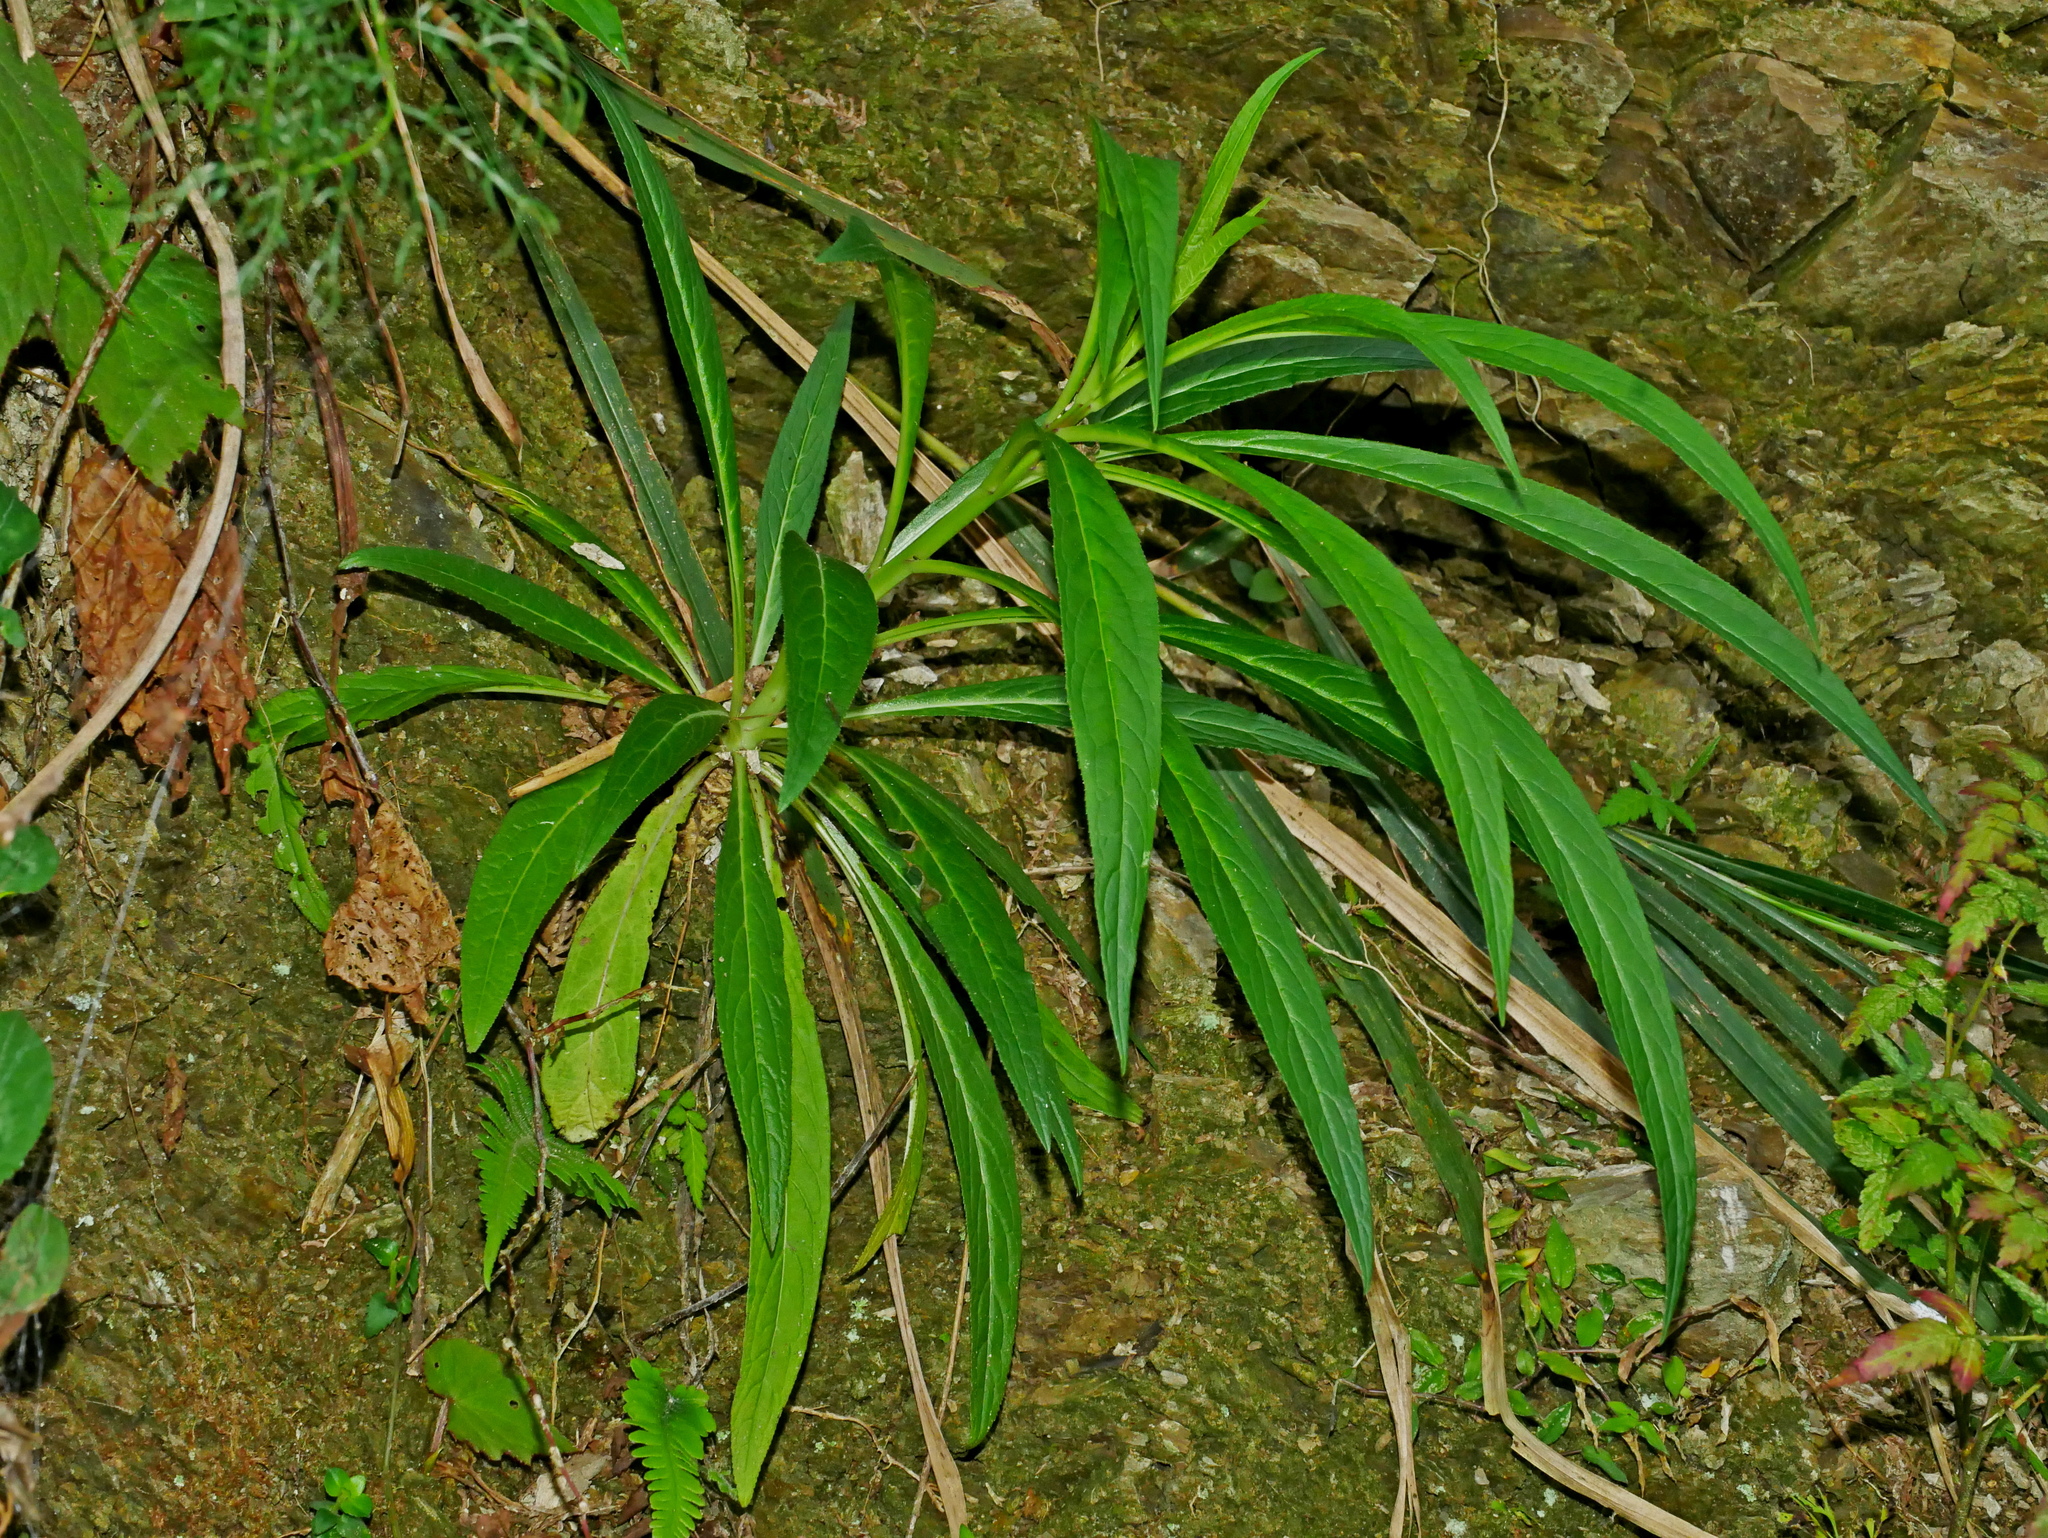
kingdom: Plantae
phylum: Tracheophyta
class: Magnoliopsida
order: Asterales
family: Campanulaceae
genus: Lobelia
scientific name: Lobelia seguinii
